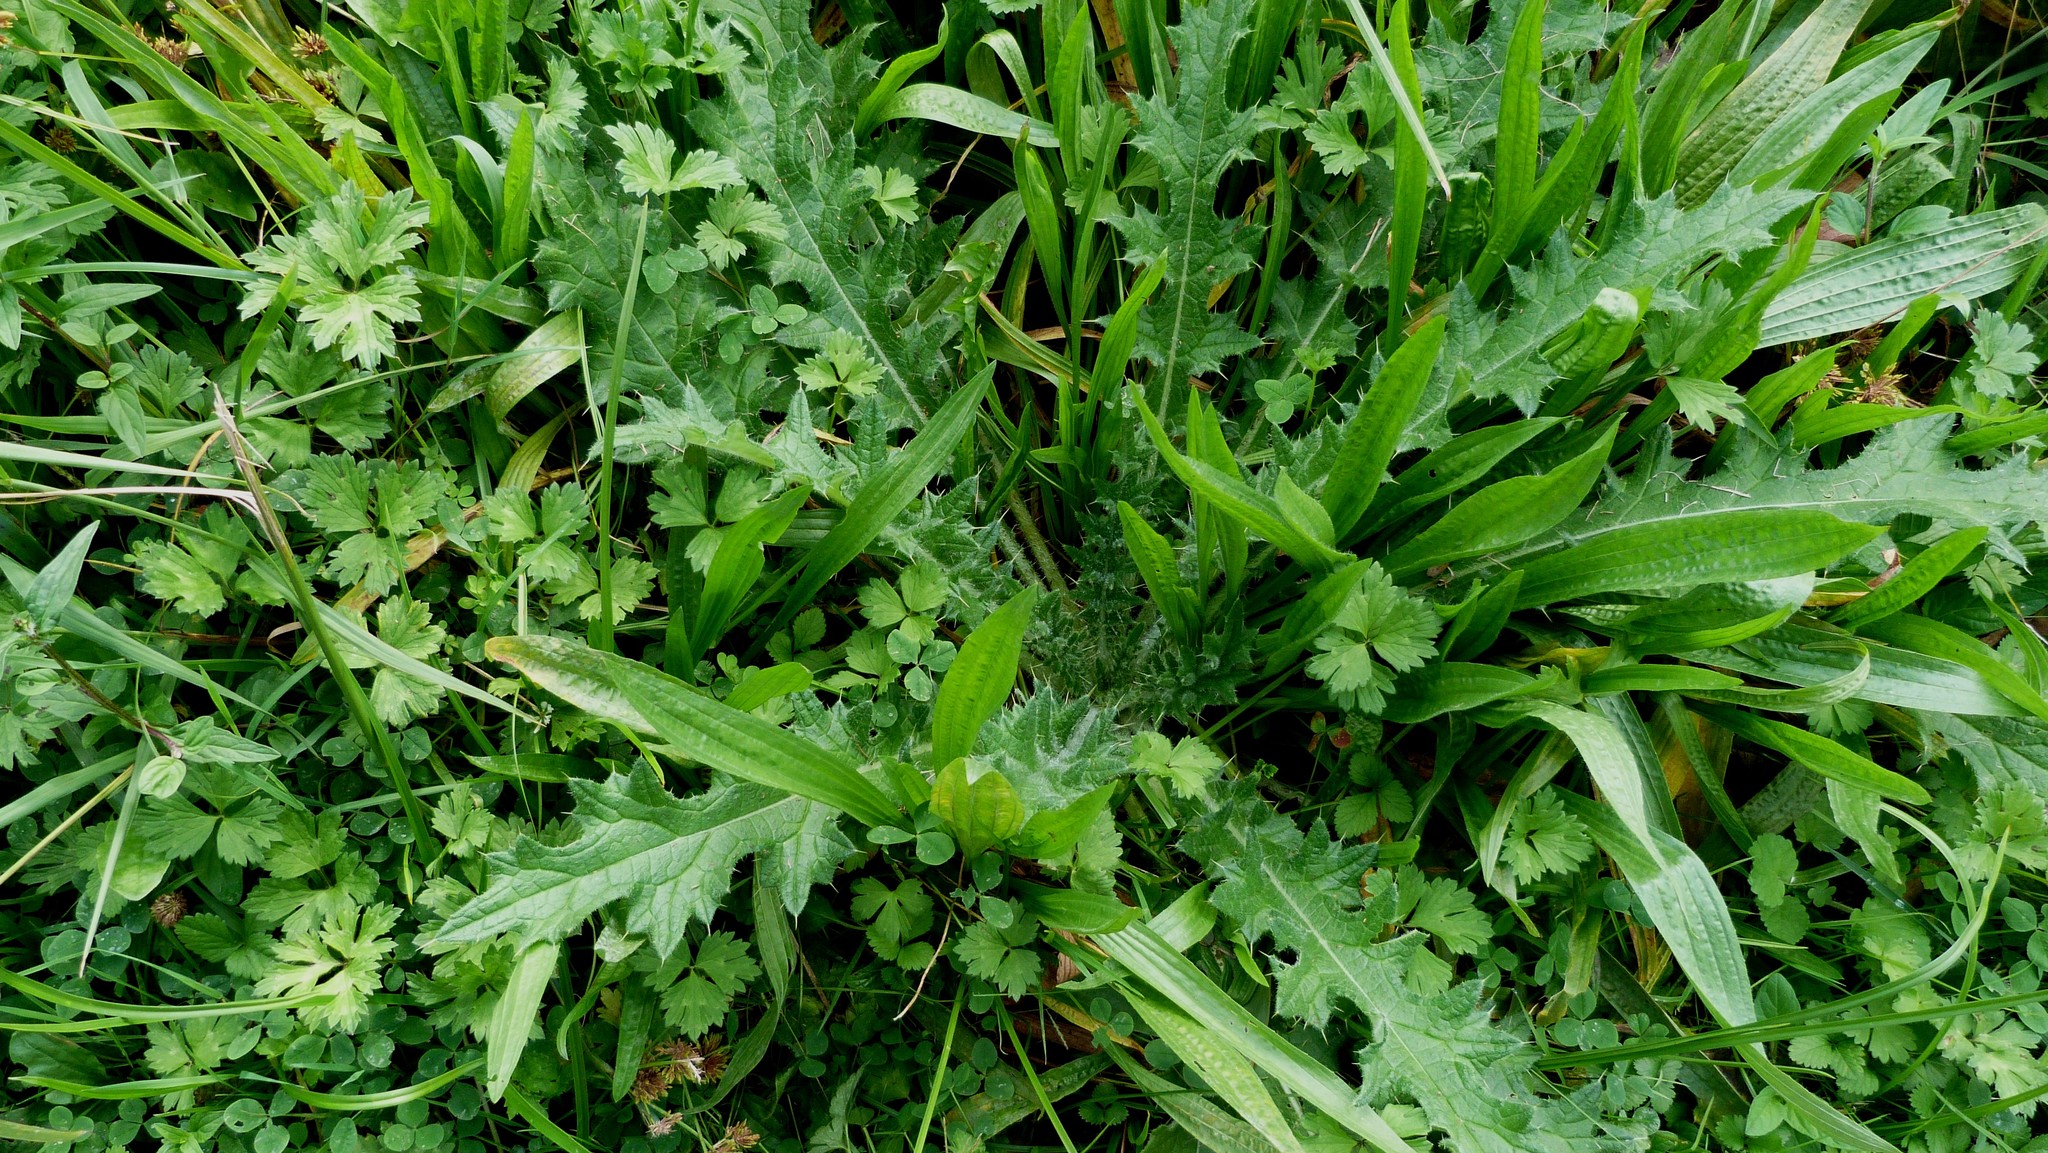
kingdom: Plantae
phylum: Tracheophyta
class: Magnoliopsida
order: Asterales
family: Asteraceae
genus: Cirsium
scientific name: Cirsium vulgare
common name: Bull thistle
